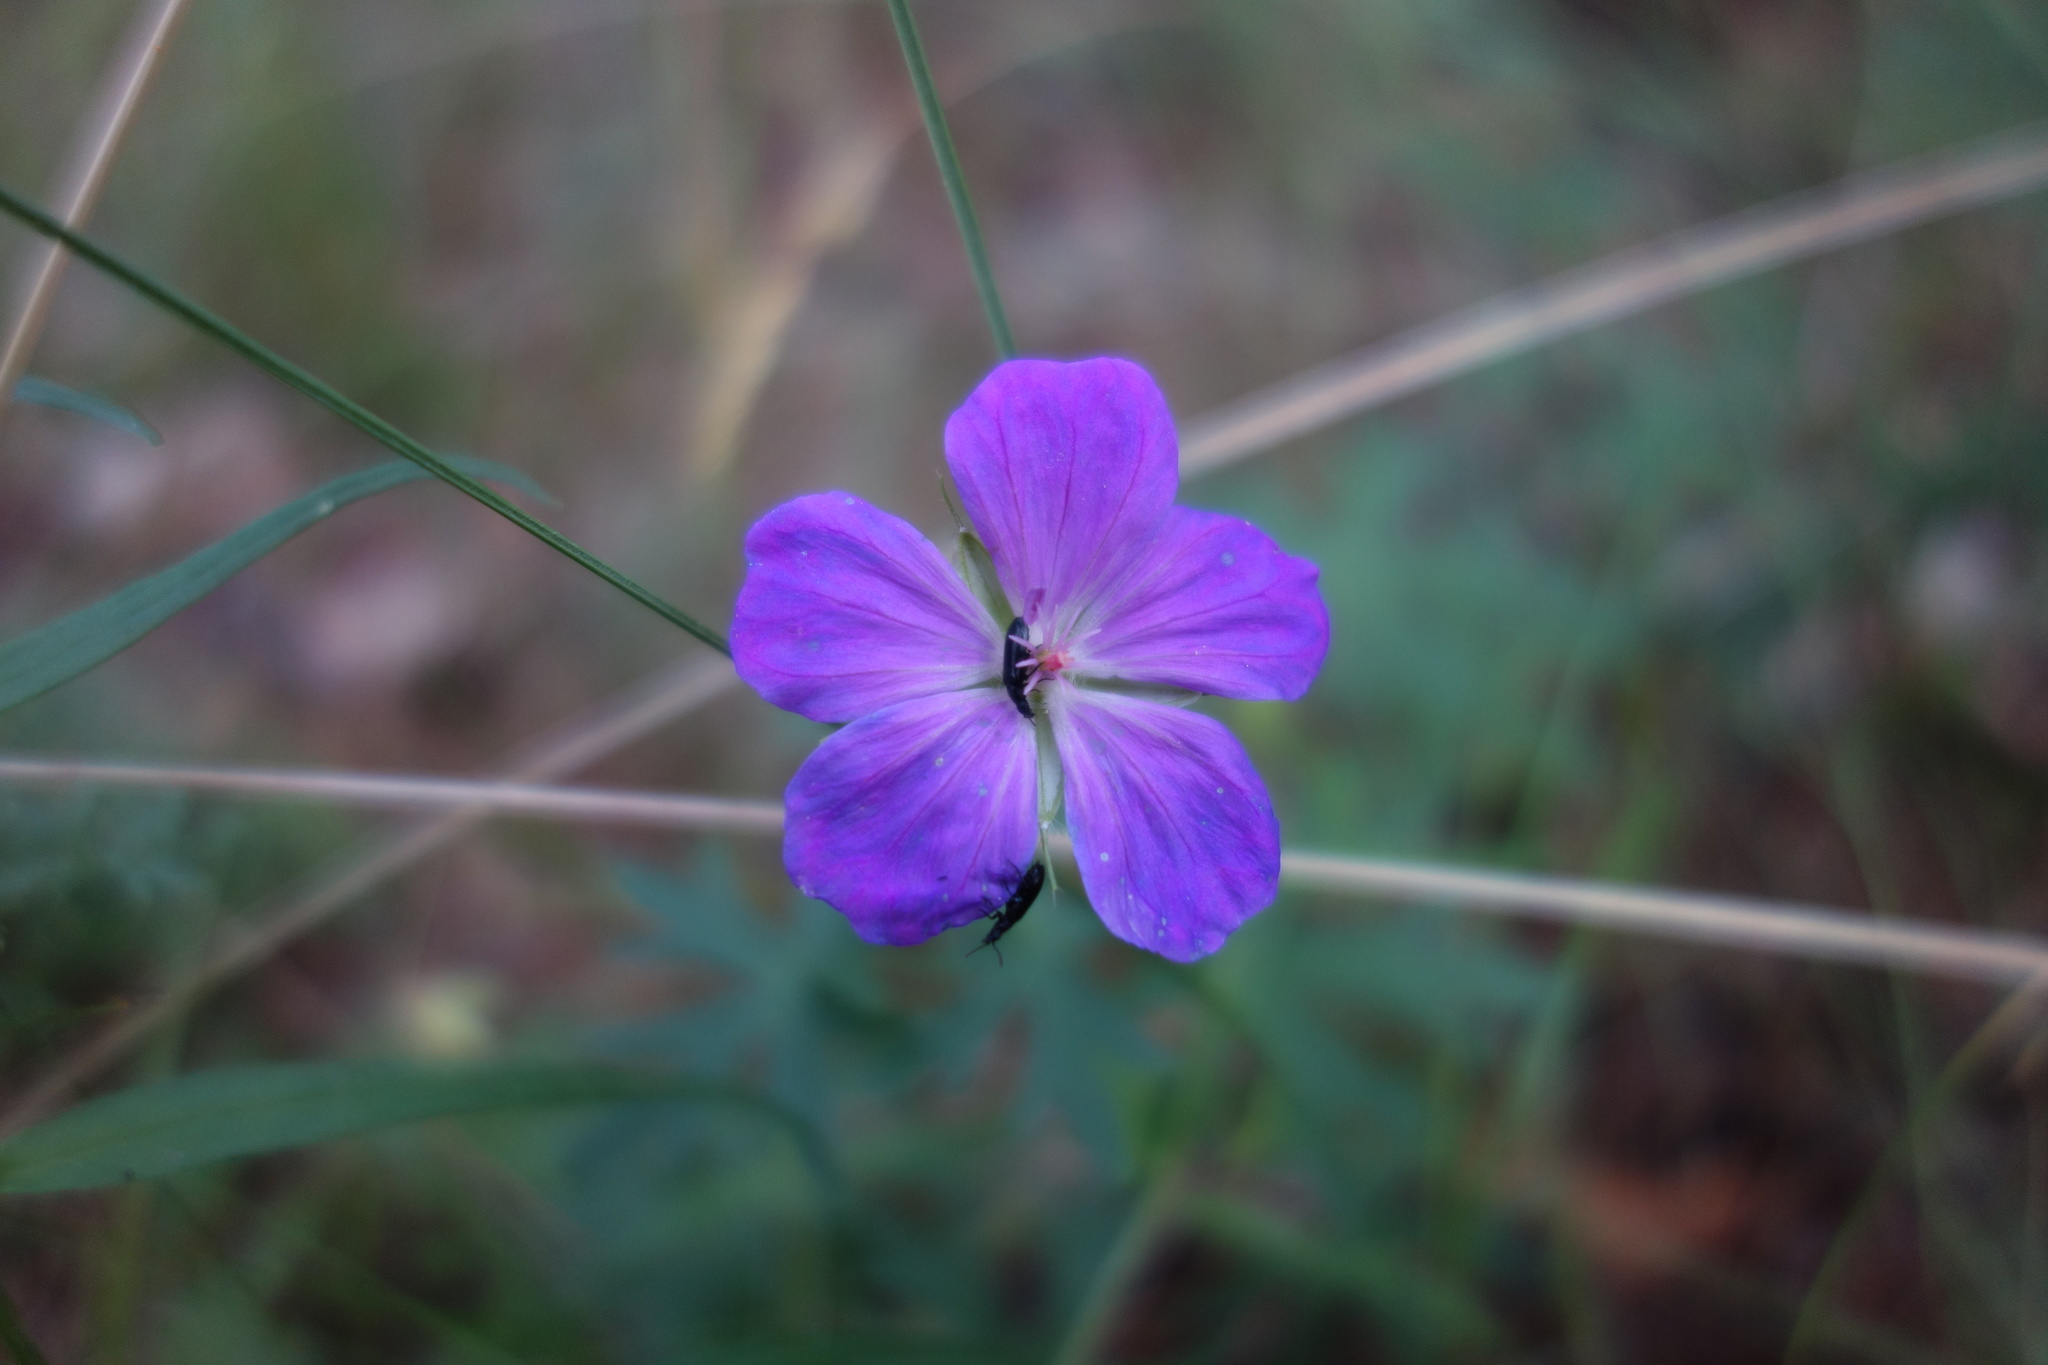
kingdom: Plantae
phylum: Tracheophyta
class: Magnoliopsida
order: Geraniales
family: Geraniaceae
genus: Geranium
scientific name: Geranium sanguineum
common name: Bloody crane's-bill
